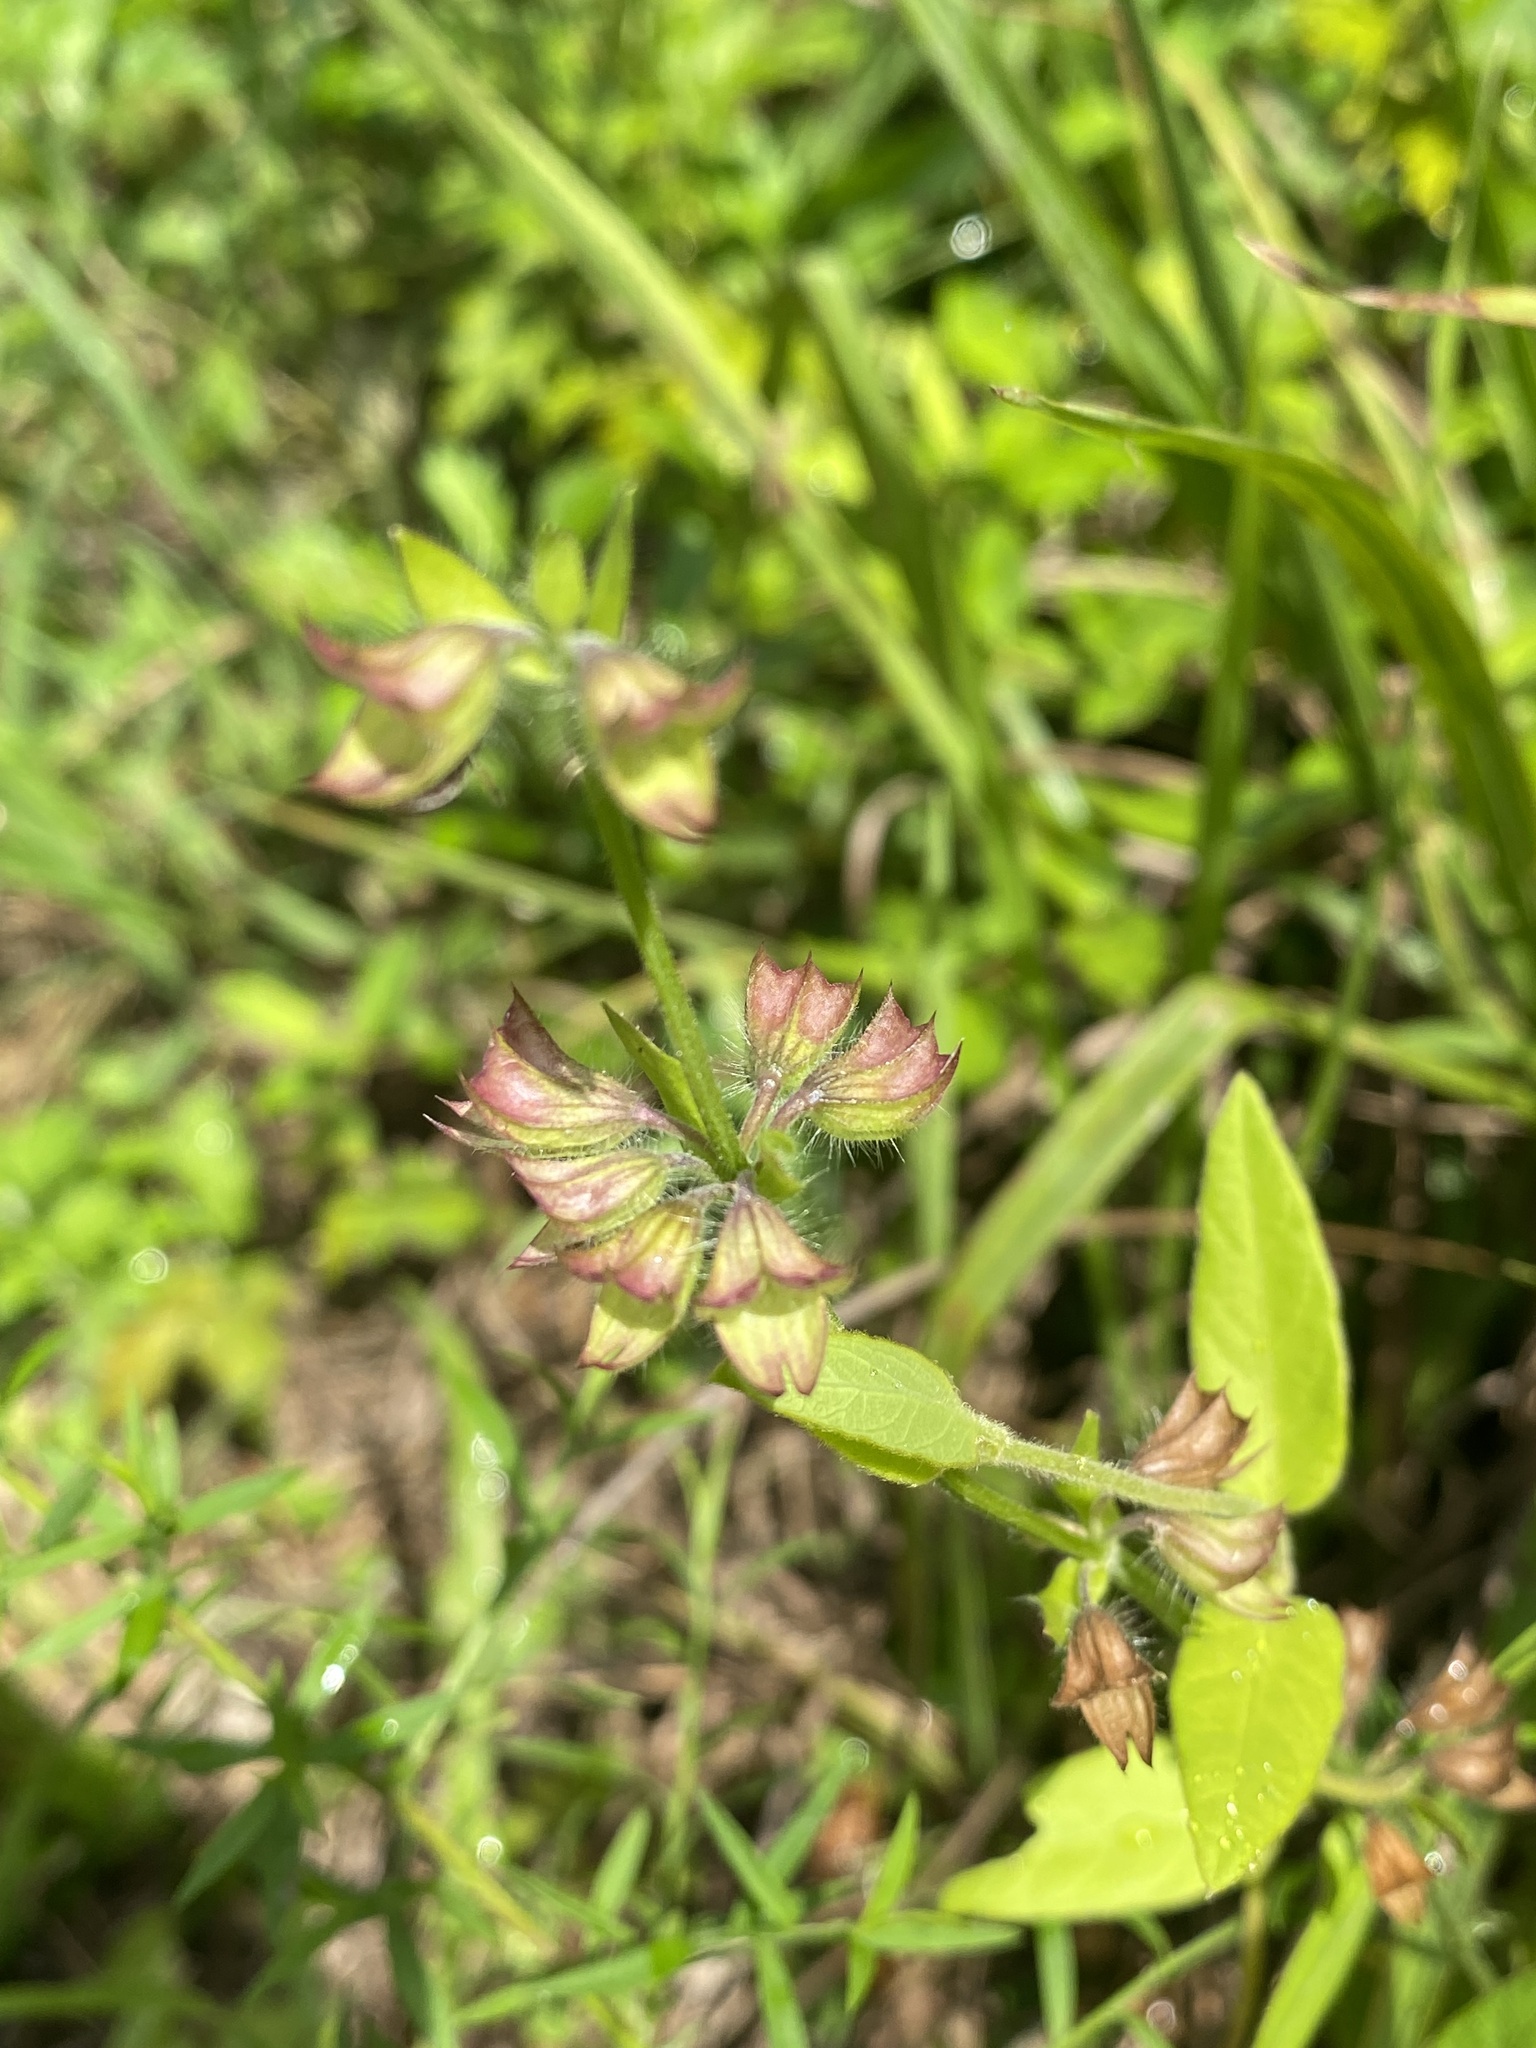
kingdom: Plantae
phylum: Tracheophyta
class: Magnoliopsida
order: Lamiales
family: Lamiaceae
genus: Salvia
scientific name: Salvia lyrata
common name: Cancerweed
